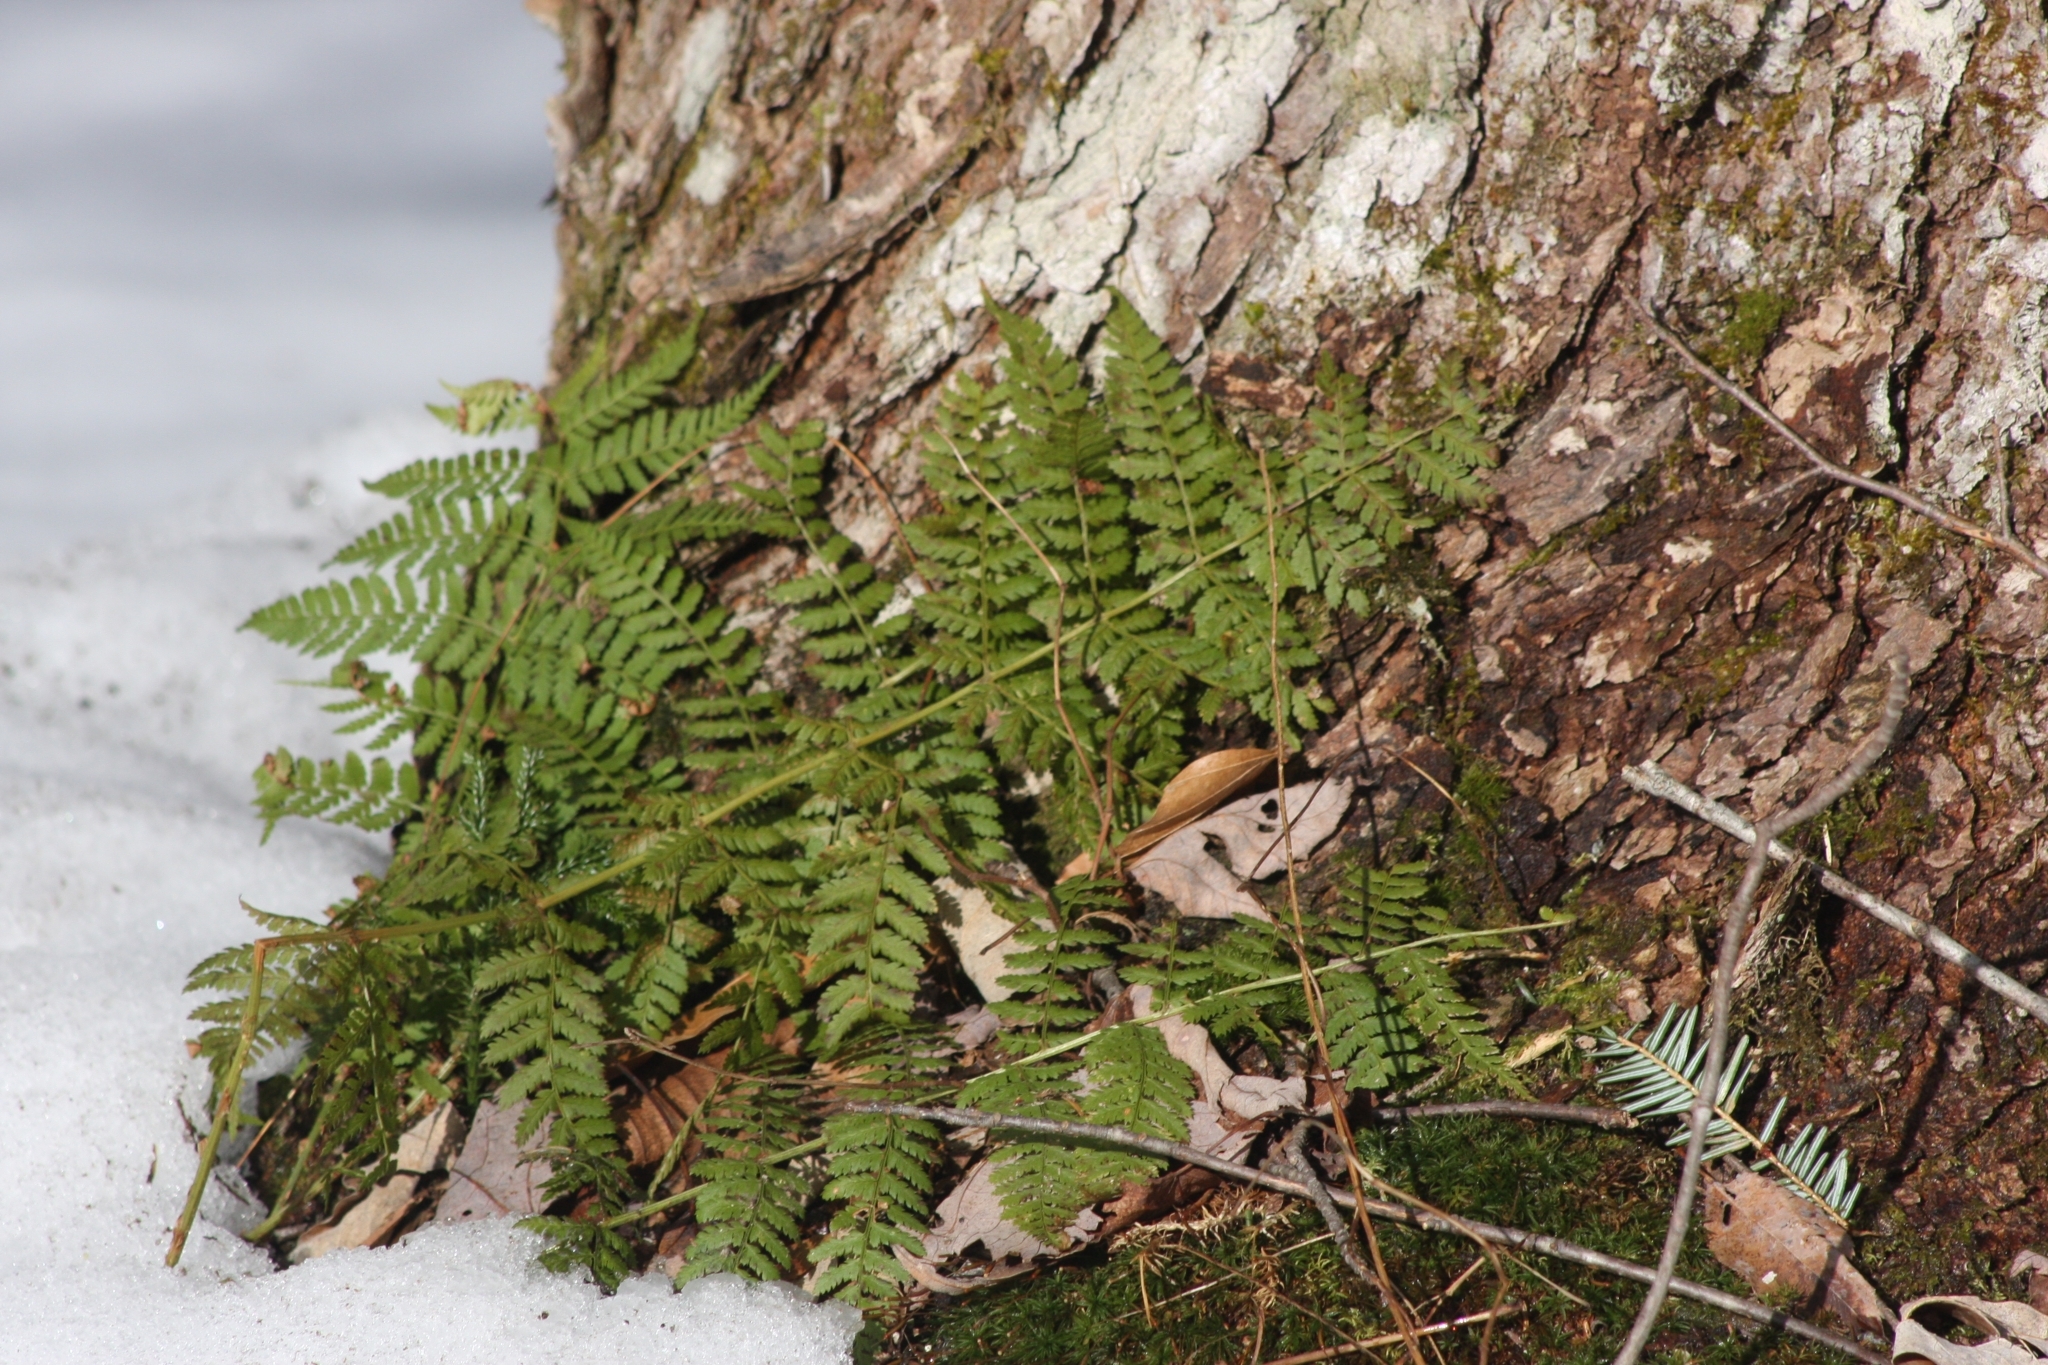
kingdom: Plantae
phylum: Tracheophyta
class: Polypodiopsida
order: Polypodiales
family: Dryopteridaceae
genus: Dryopteris
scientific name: Dryopteris intermedia
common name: Evergreen wood fern
